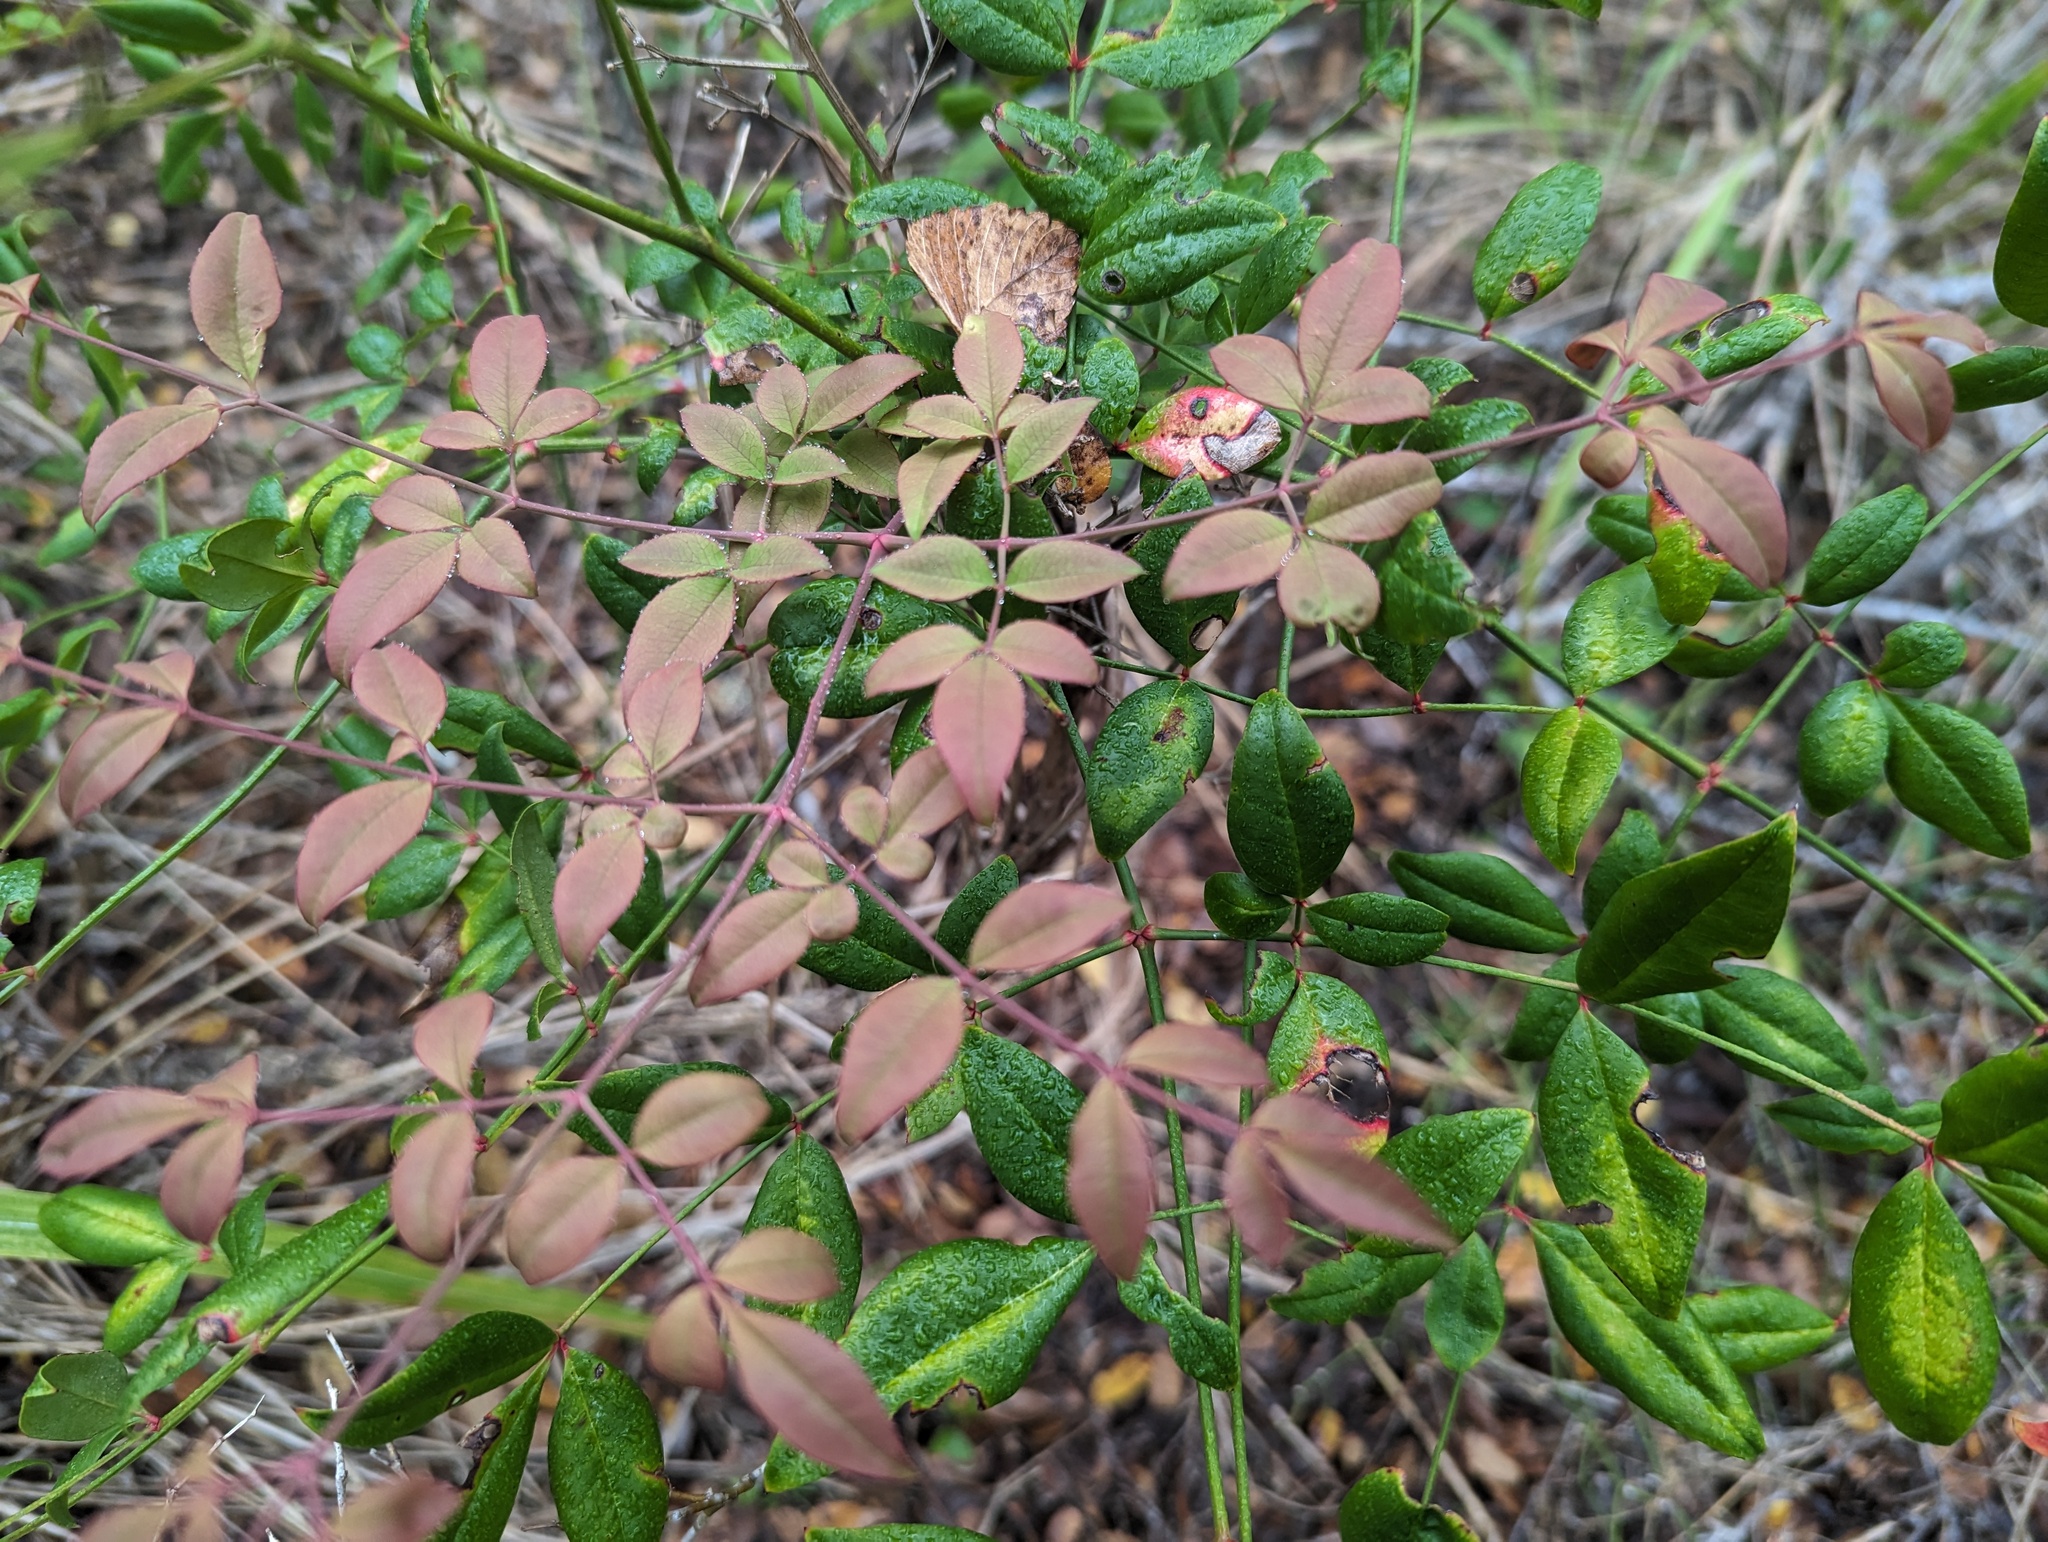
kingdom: Plantae
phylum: Tracheophyta
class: Magnoliopsida
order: Ranunculales
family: Berberidaceae
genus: Nandina
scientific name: Nandina domestica
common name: Sacred bamboo
